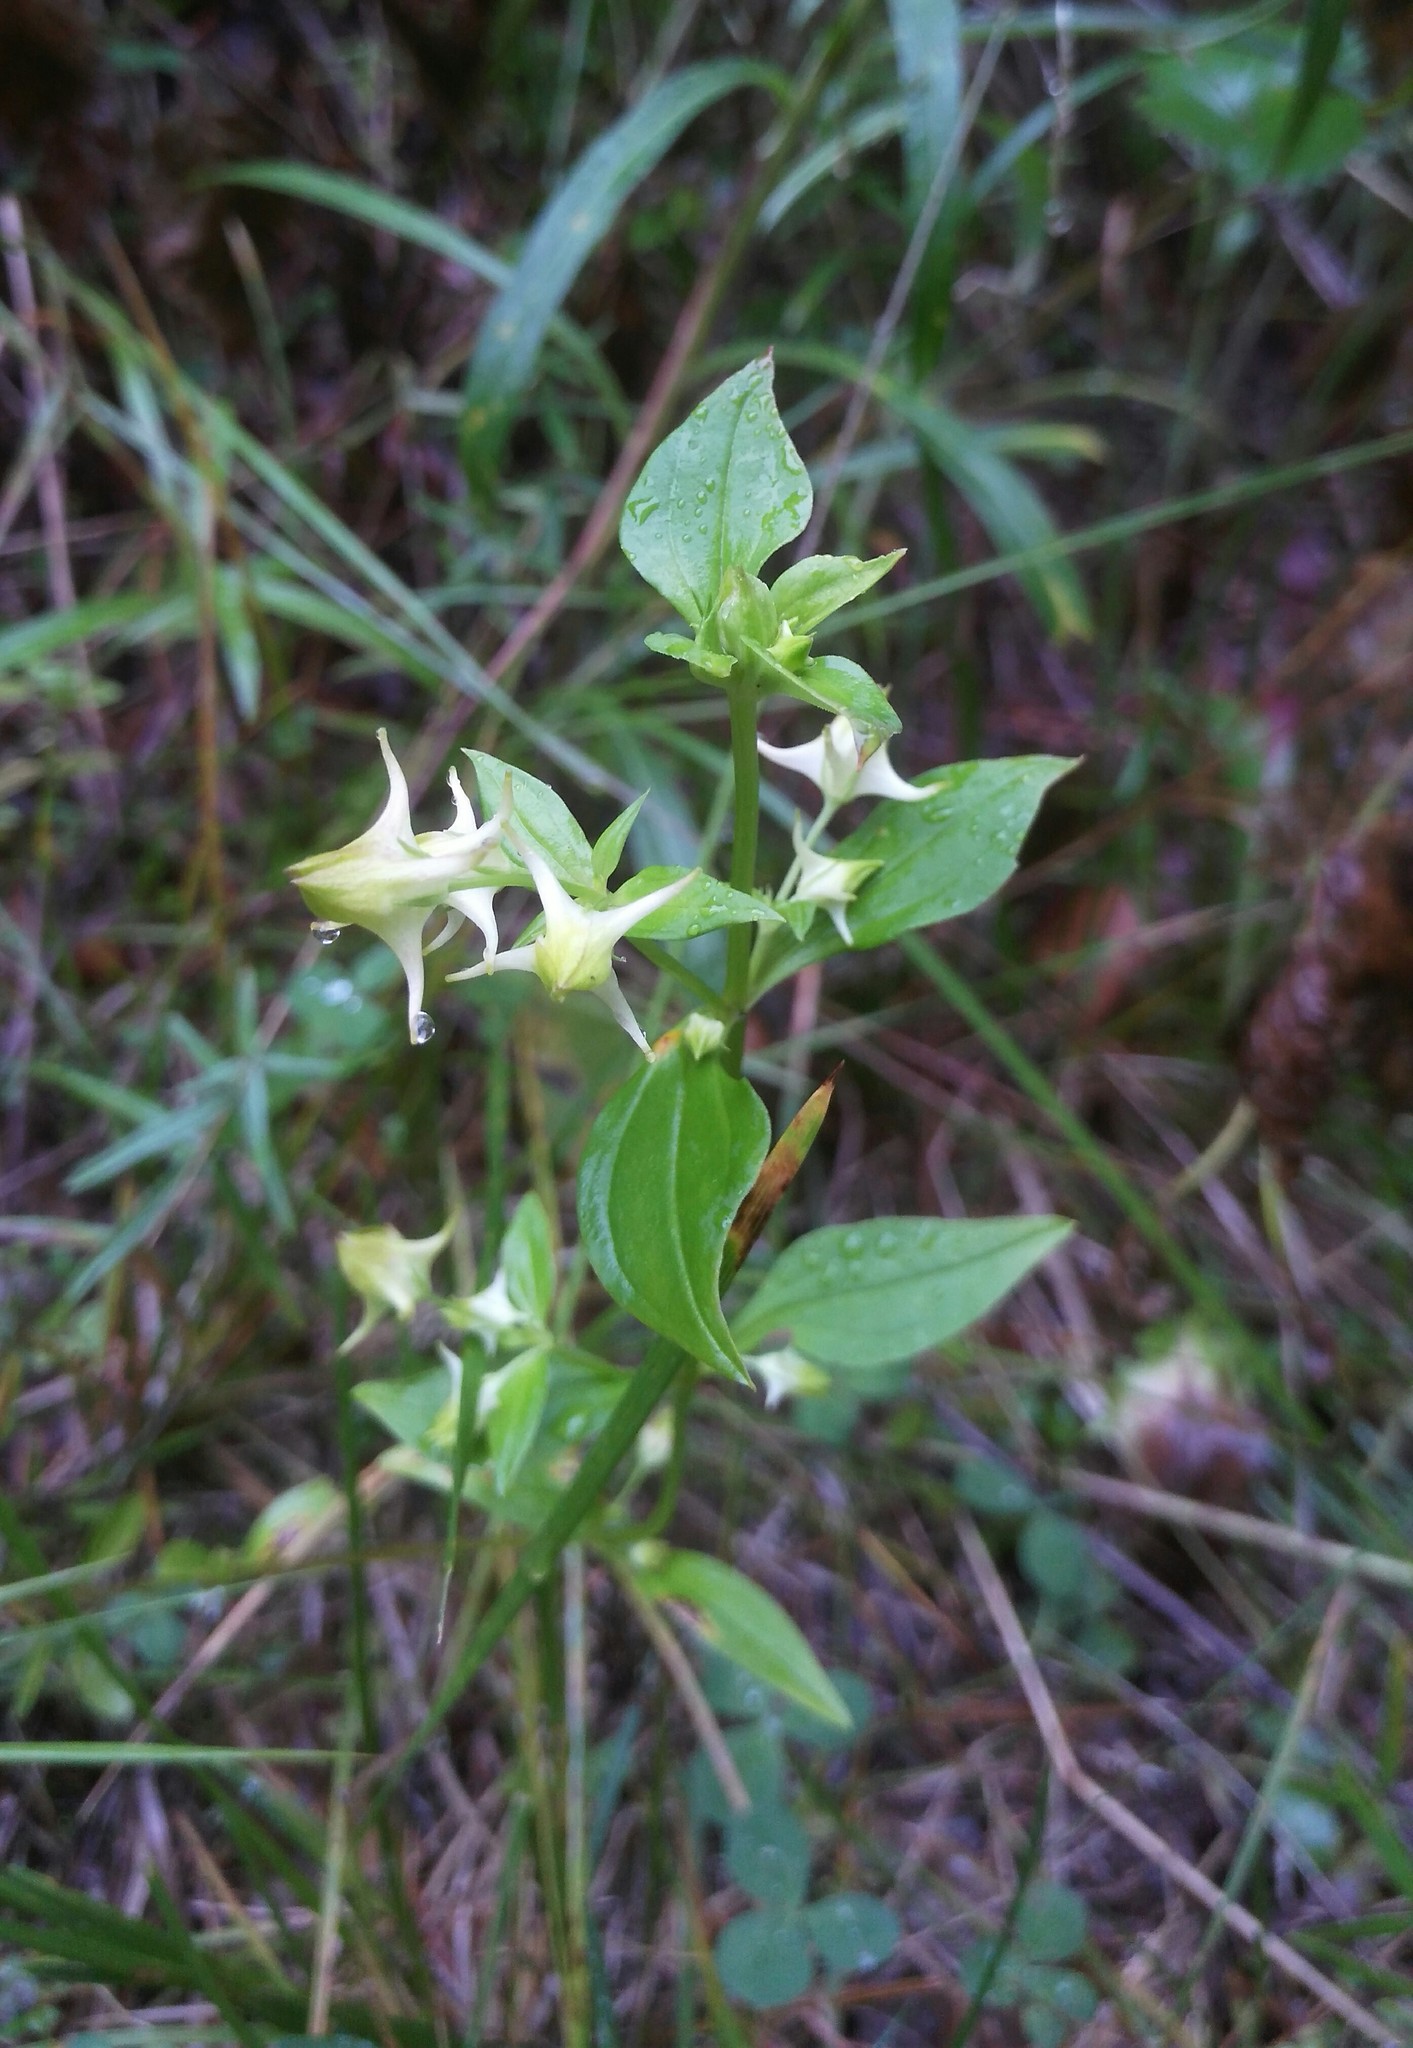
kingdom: Plantae
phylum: Tracheophyta
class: Magnoliopsida
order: Gentianales
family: Gentianaceae
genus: Halenia
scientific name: Halenia corniculata
